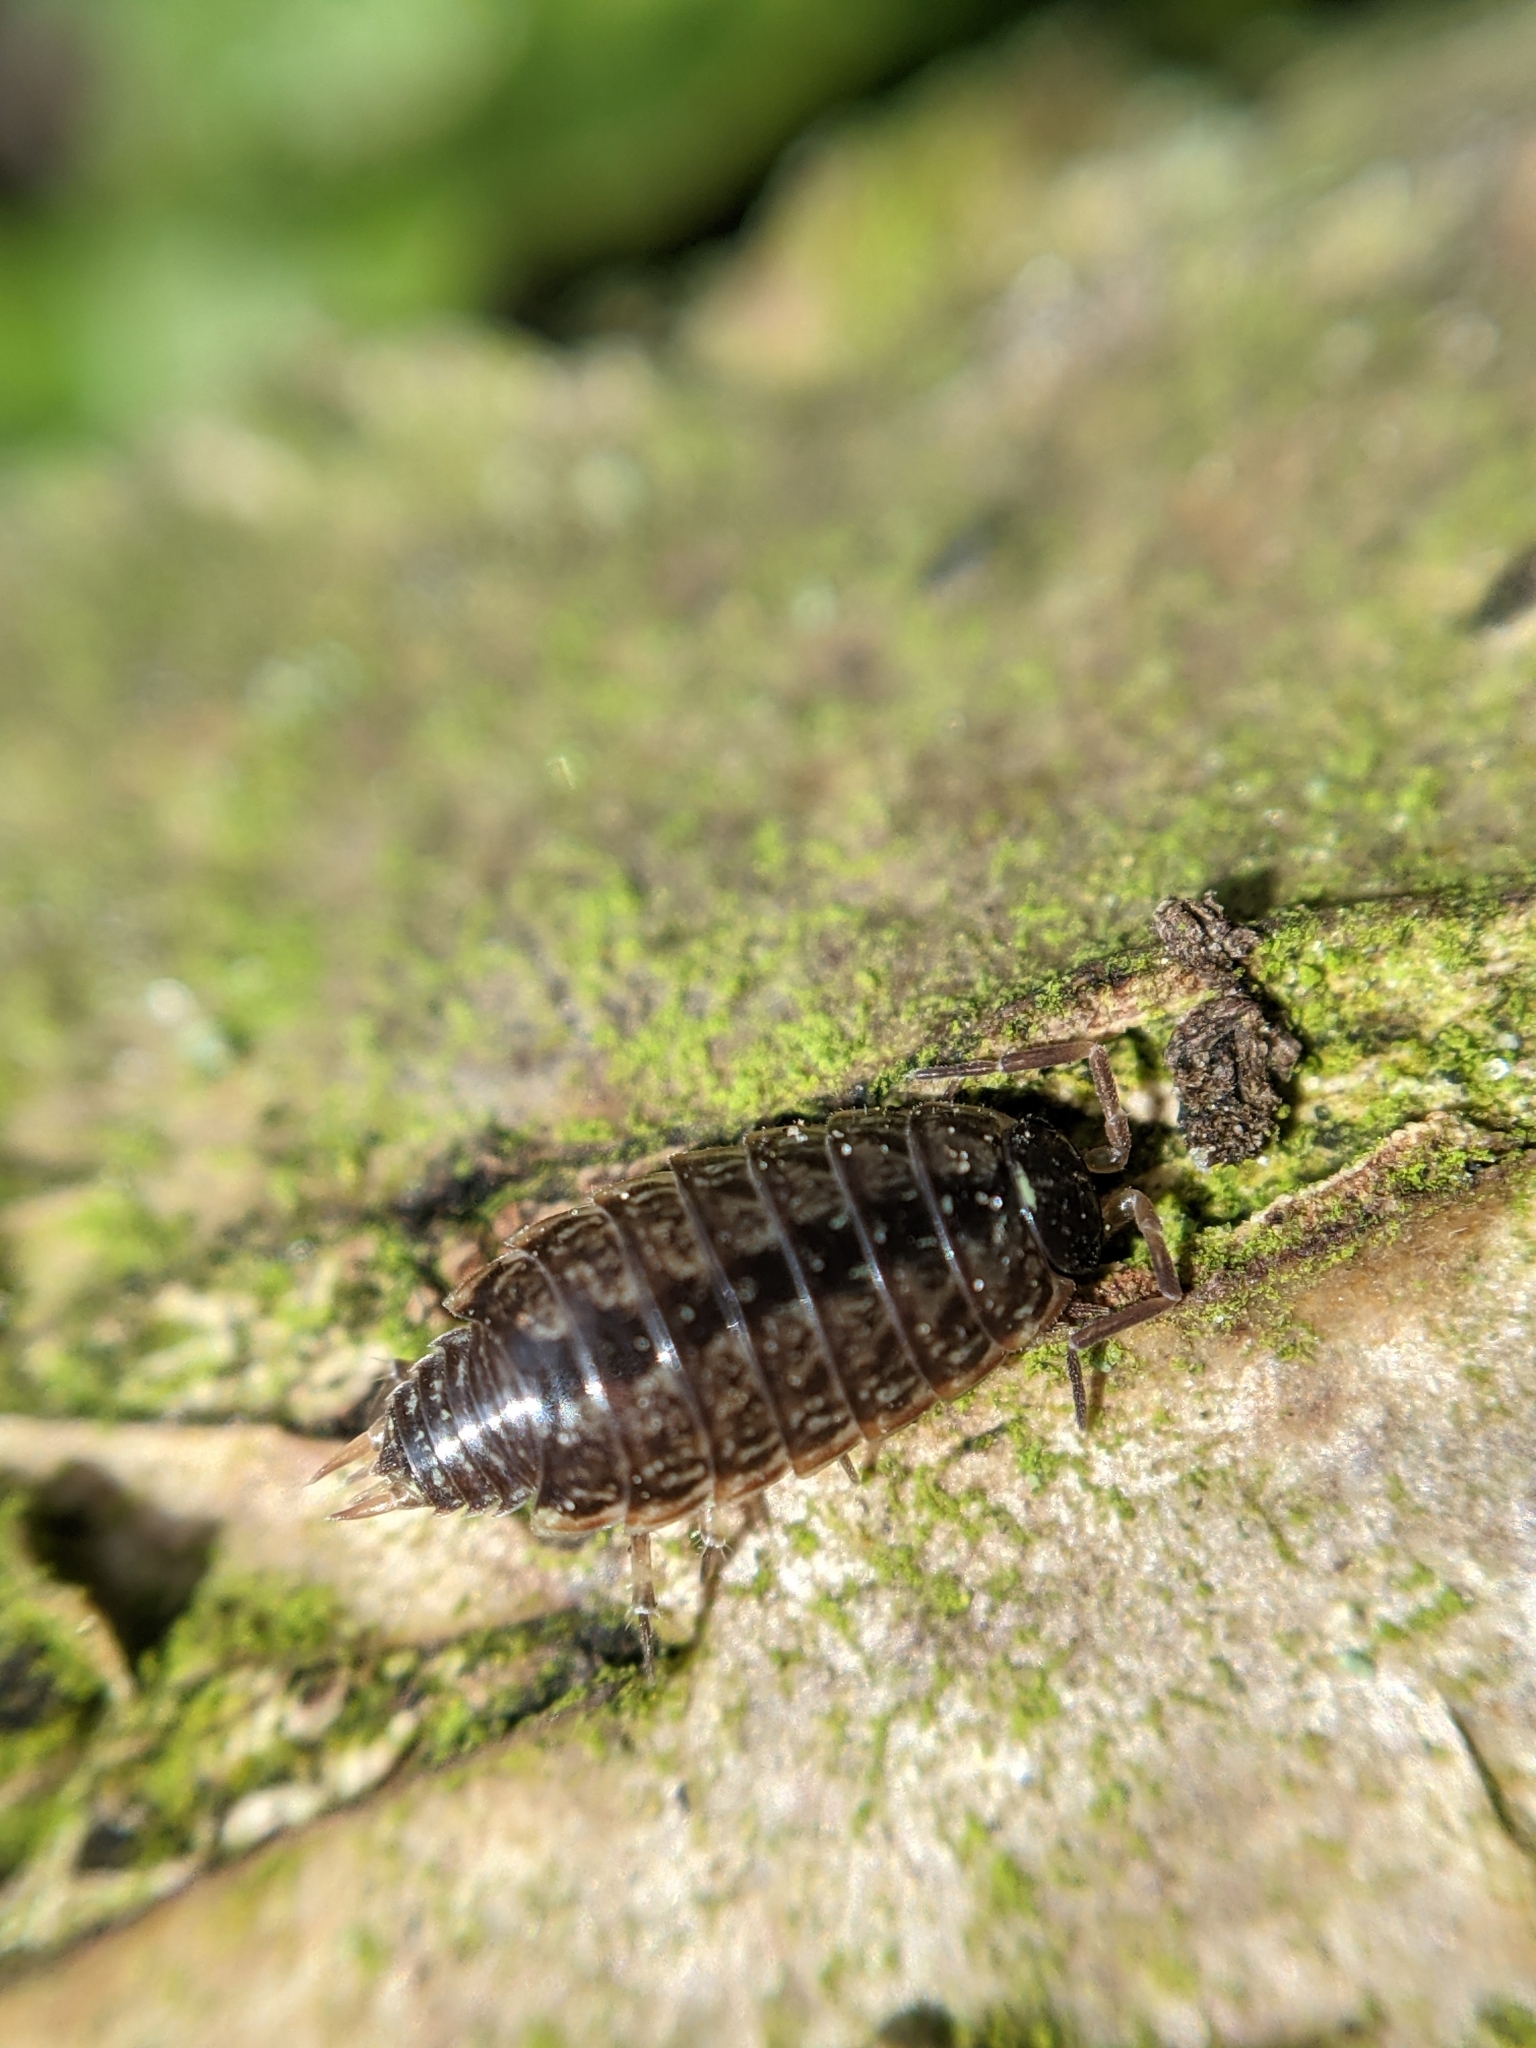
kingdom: Animalia
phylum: Arthropoda
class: Malacostraca
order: Isopoda
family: Philosciidae
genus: Philoscia
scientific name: Philoscia muscorum
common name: Common striped woodlouse
